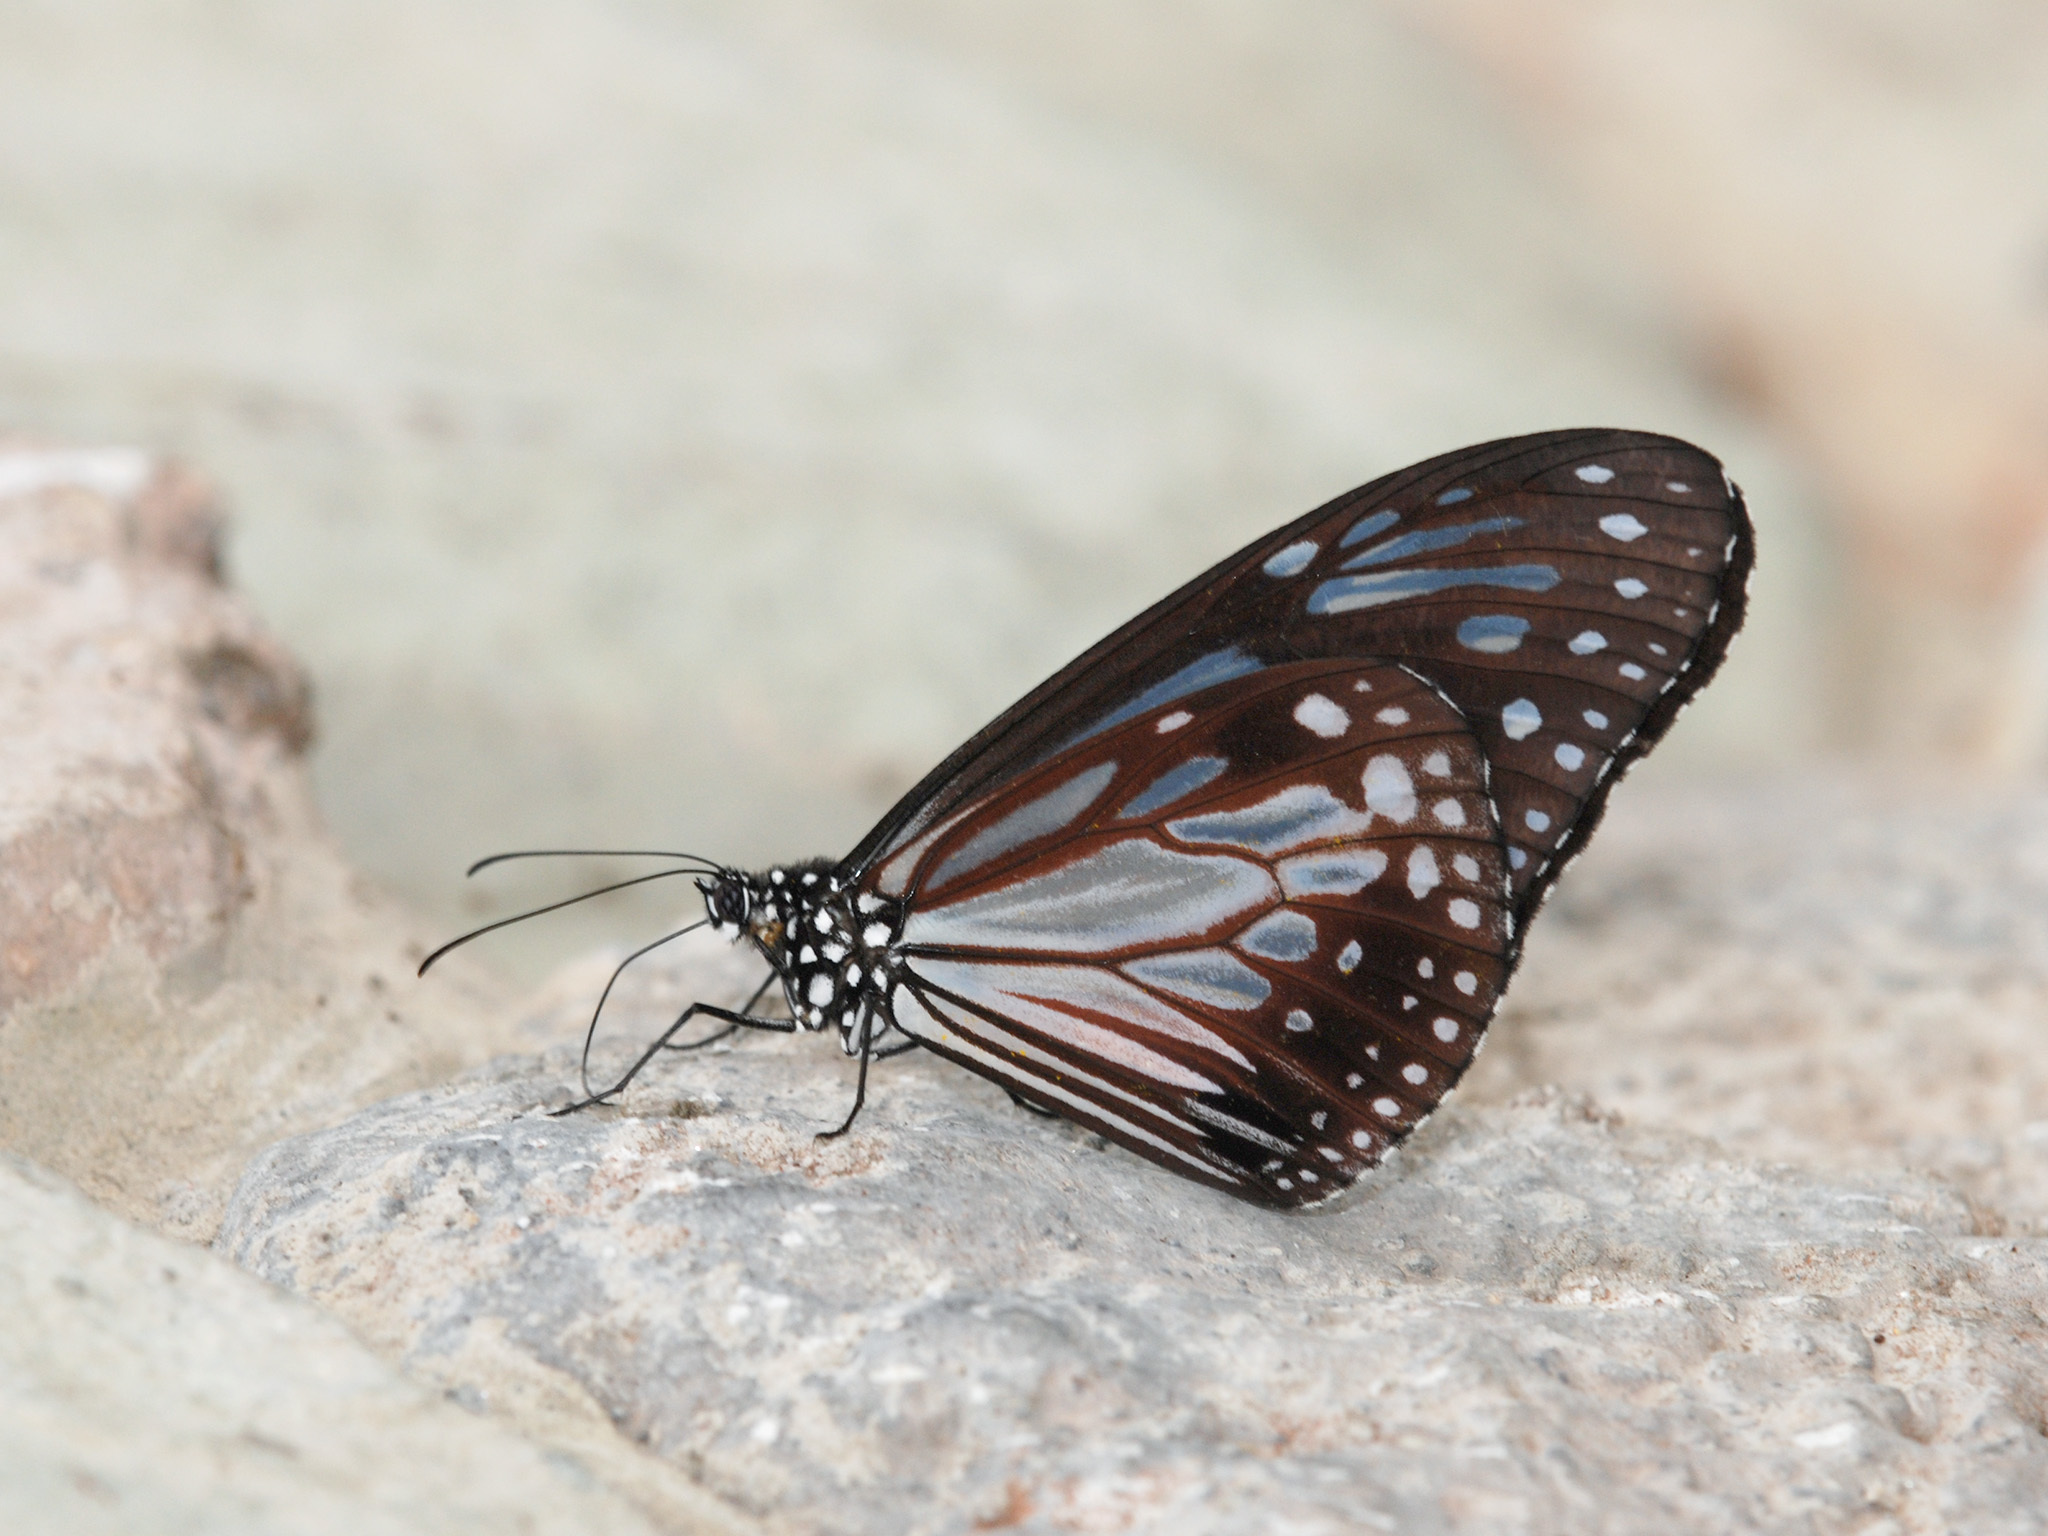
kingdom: Animalia
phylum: Arthropoda
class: Insecta
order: Lepidoptera
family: Nymphalidae
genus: Parantica
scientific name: Parantica melaneus
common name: Chocolate tiger
